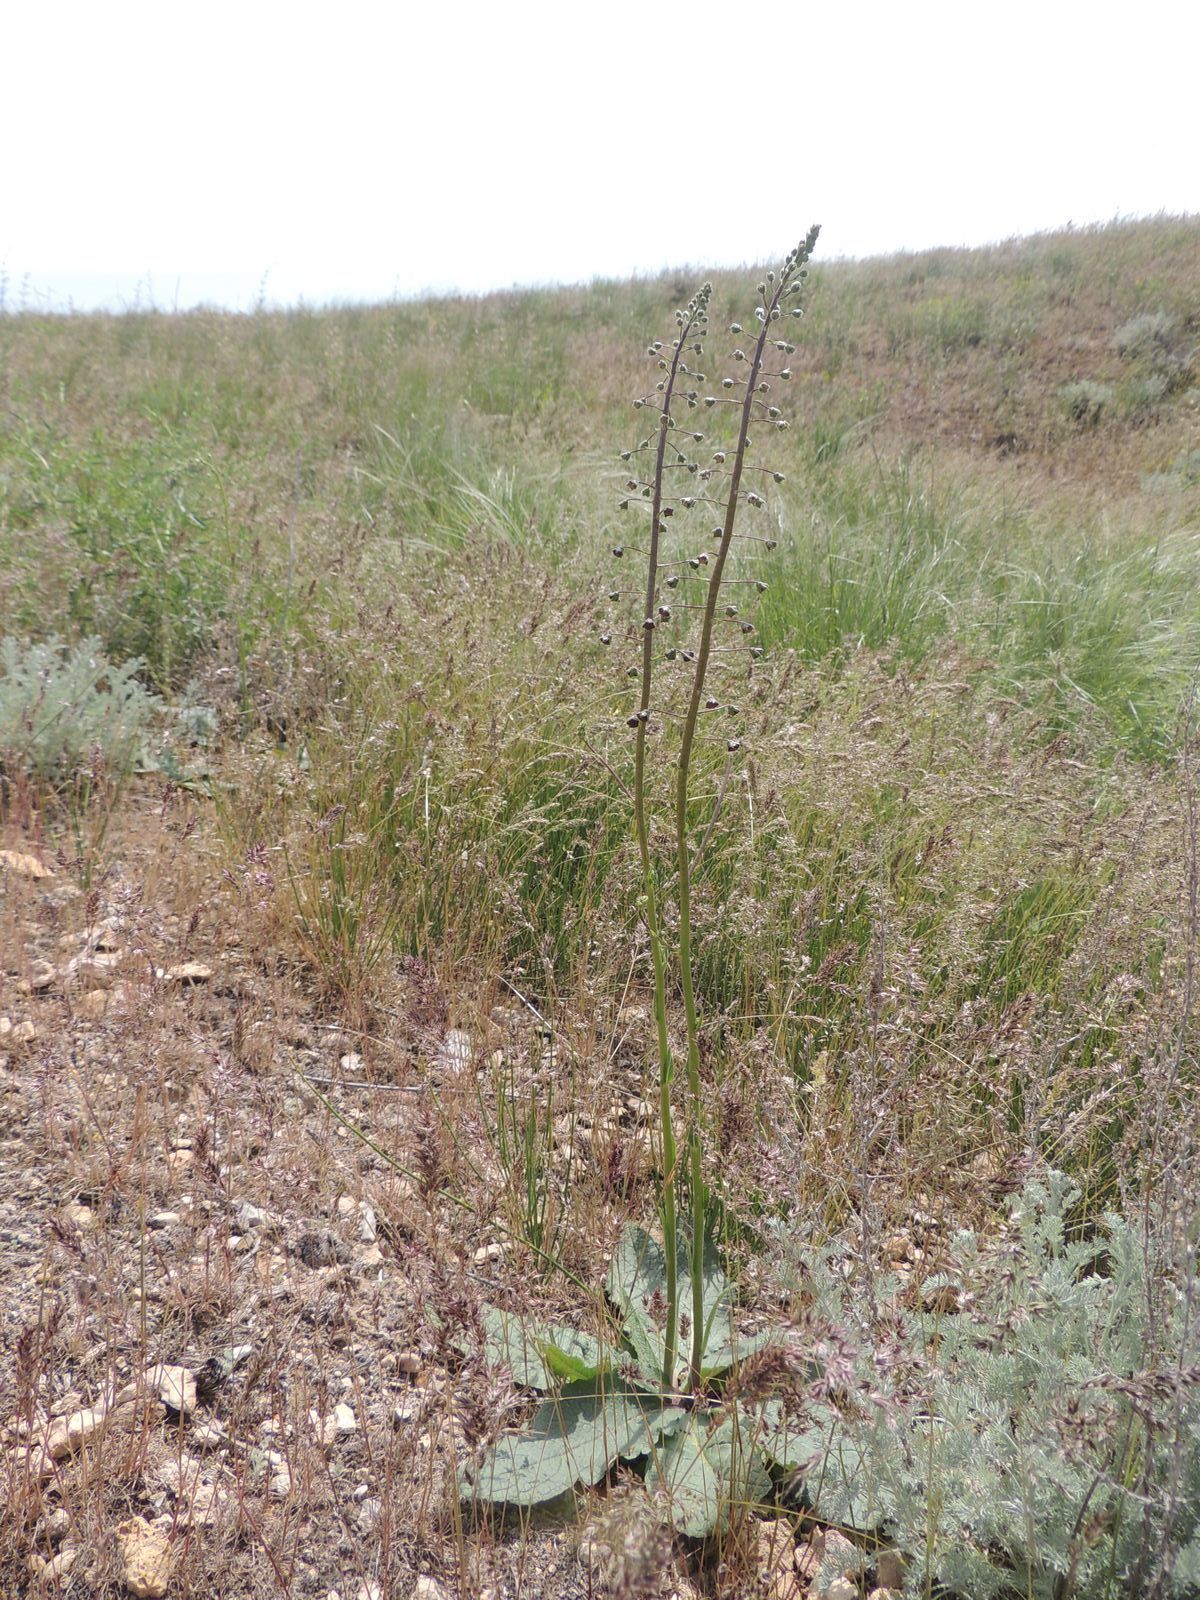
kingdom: Plantae
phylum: Tracheophyta
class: Magnoliopsida
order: Lamiales
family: Scrophulariaceae
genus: Verbascum
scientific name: Verbascum phoeniceum
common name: Purple mullein
